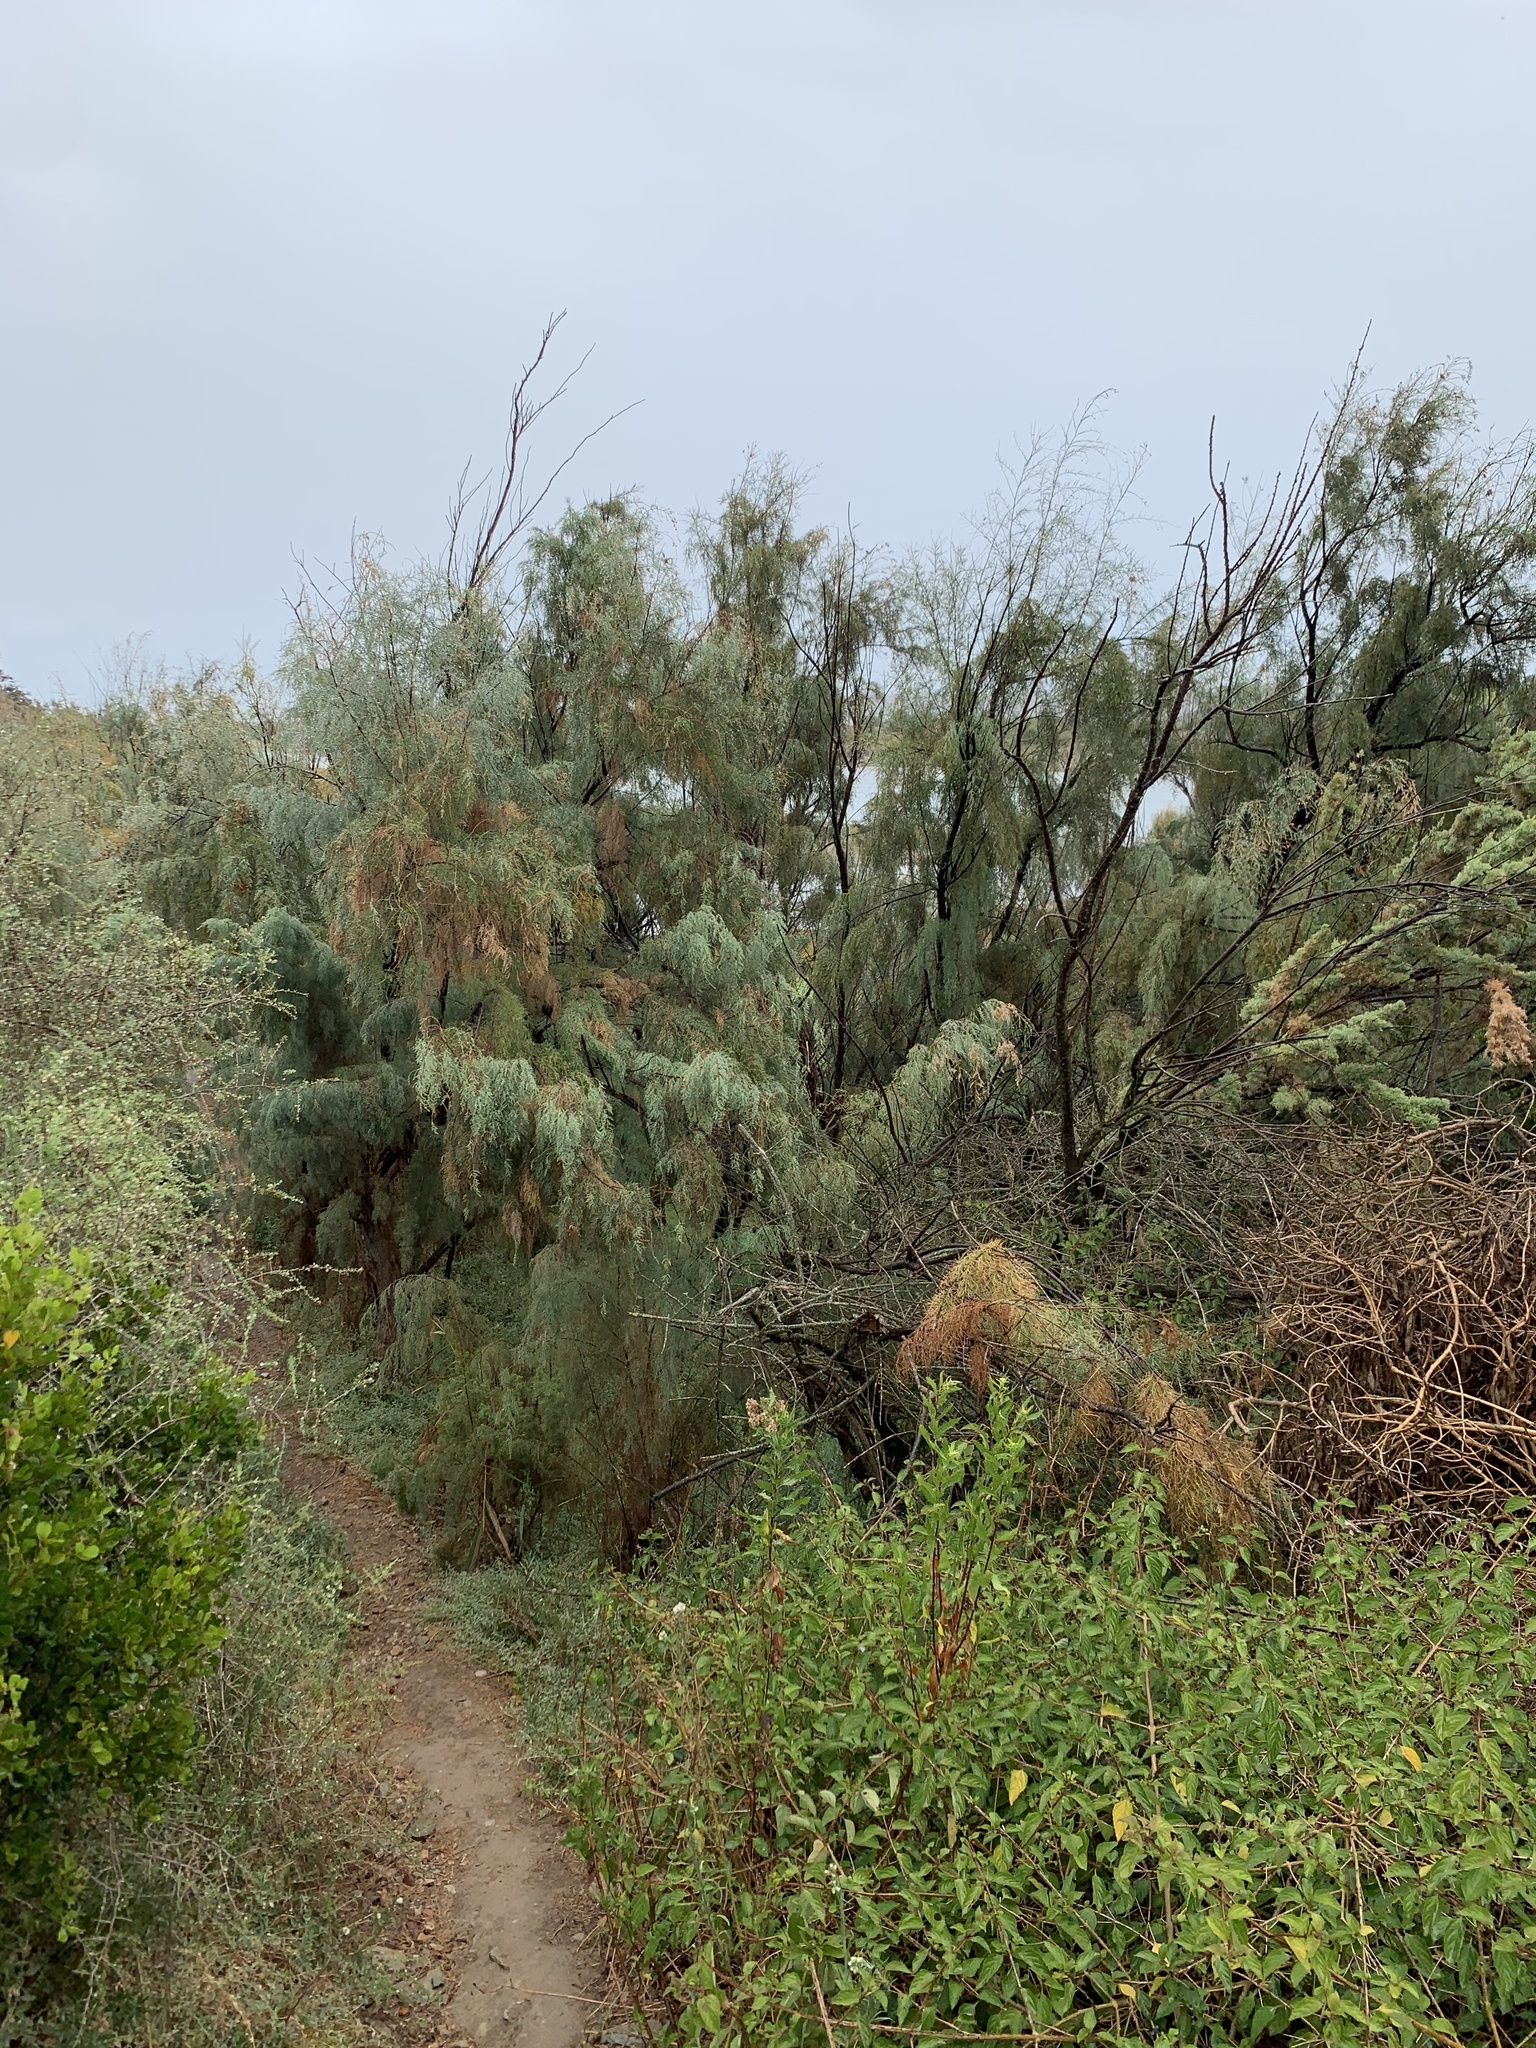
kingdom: Plantae
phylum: Tracheophyta
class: Magnoliopsida
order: Caryophyllales
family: Tamaricaceae
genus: Tamarix
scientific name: Tamarix ramosissima
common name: Pink tamarisk
